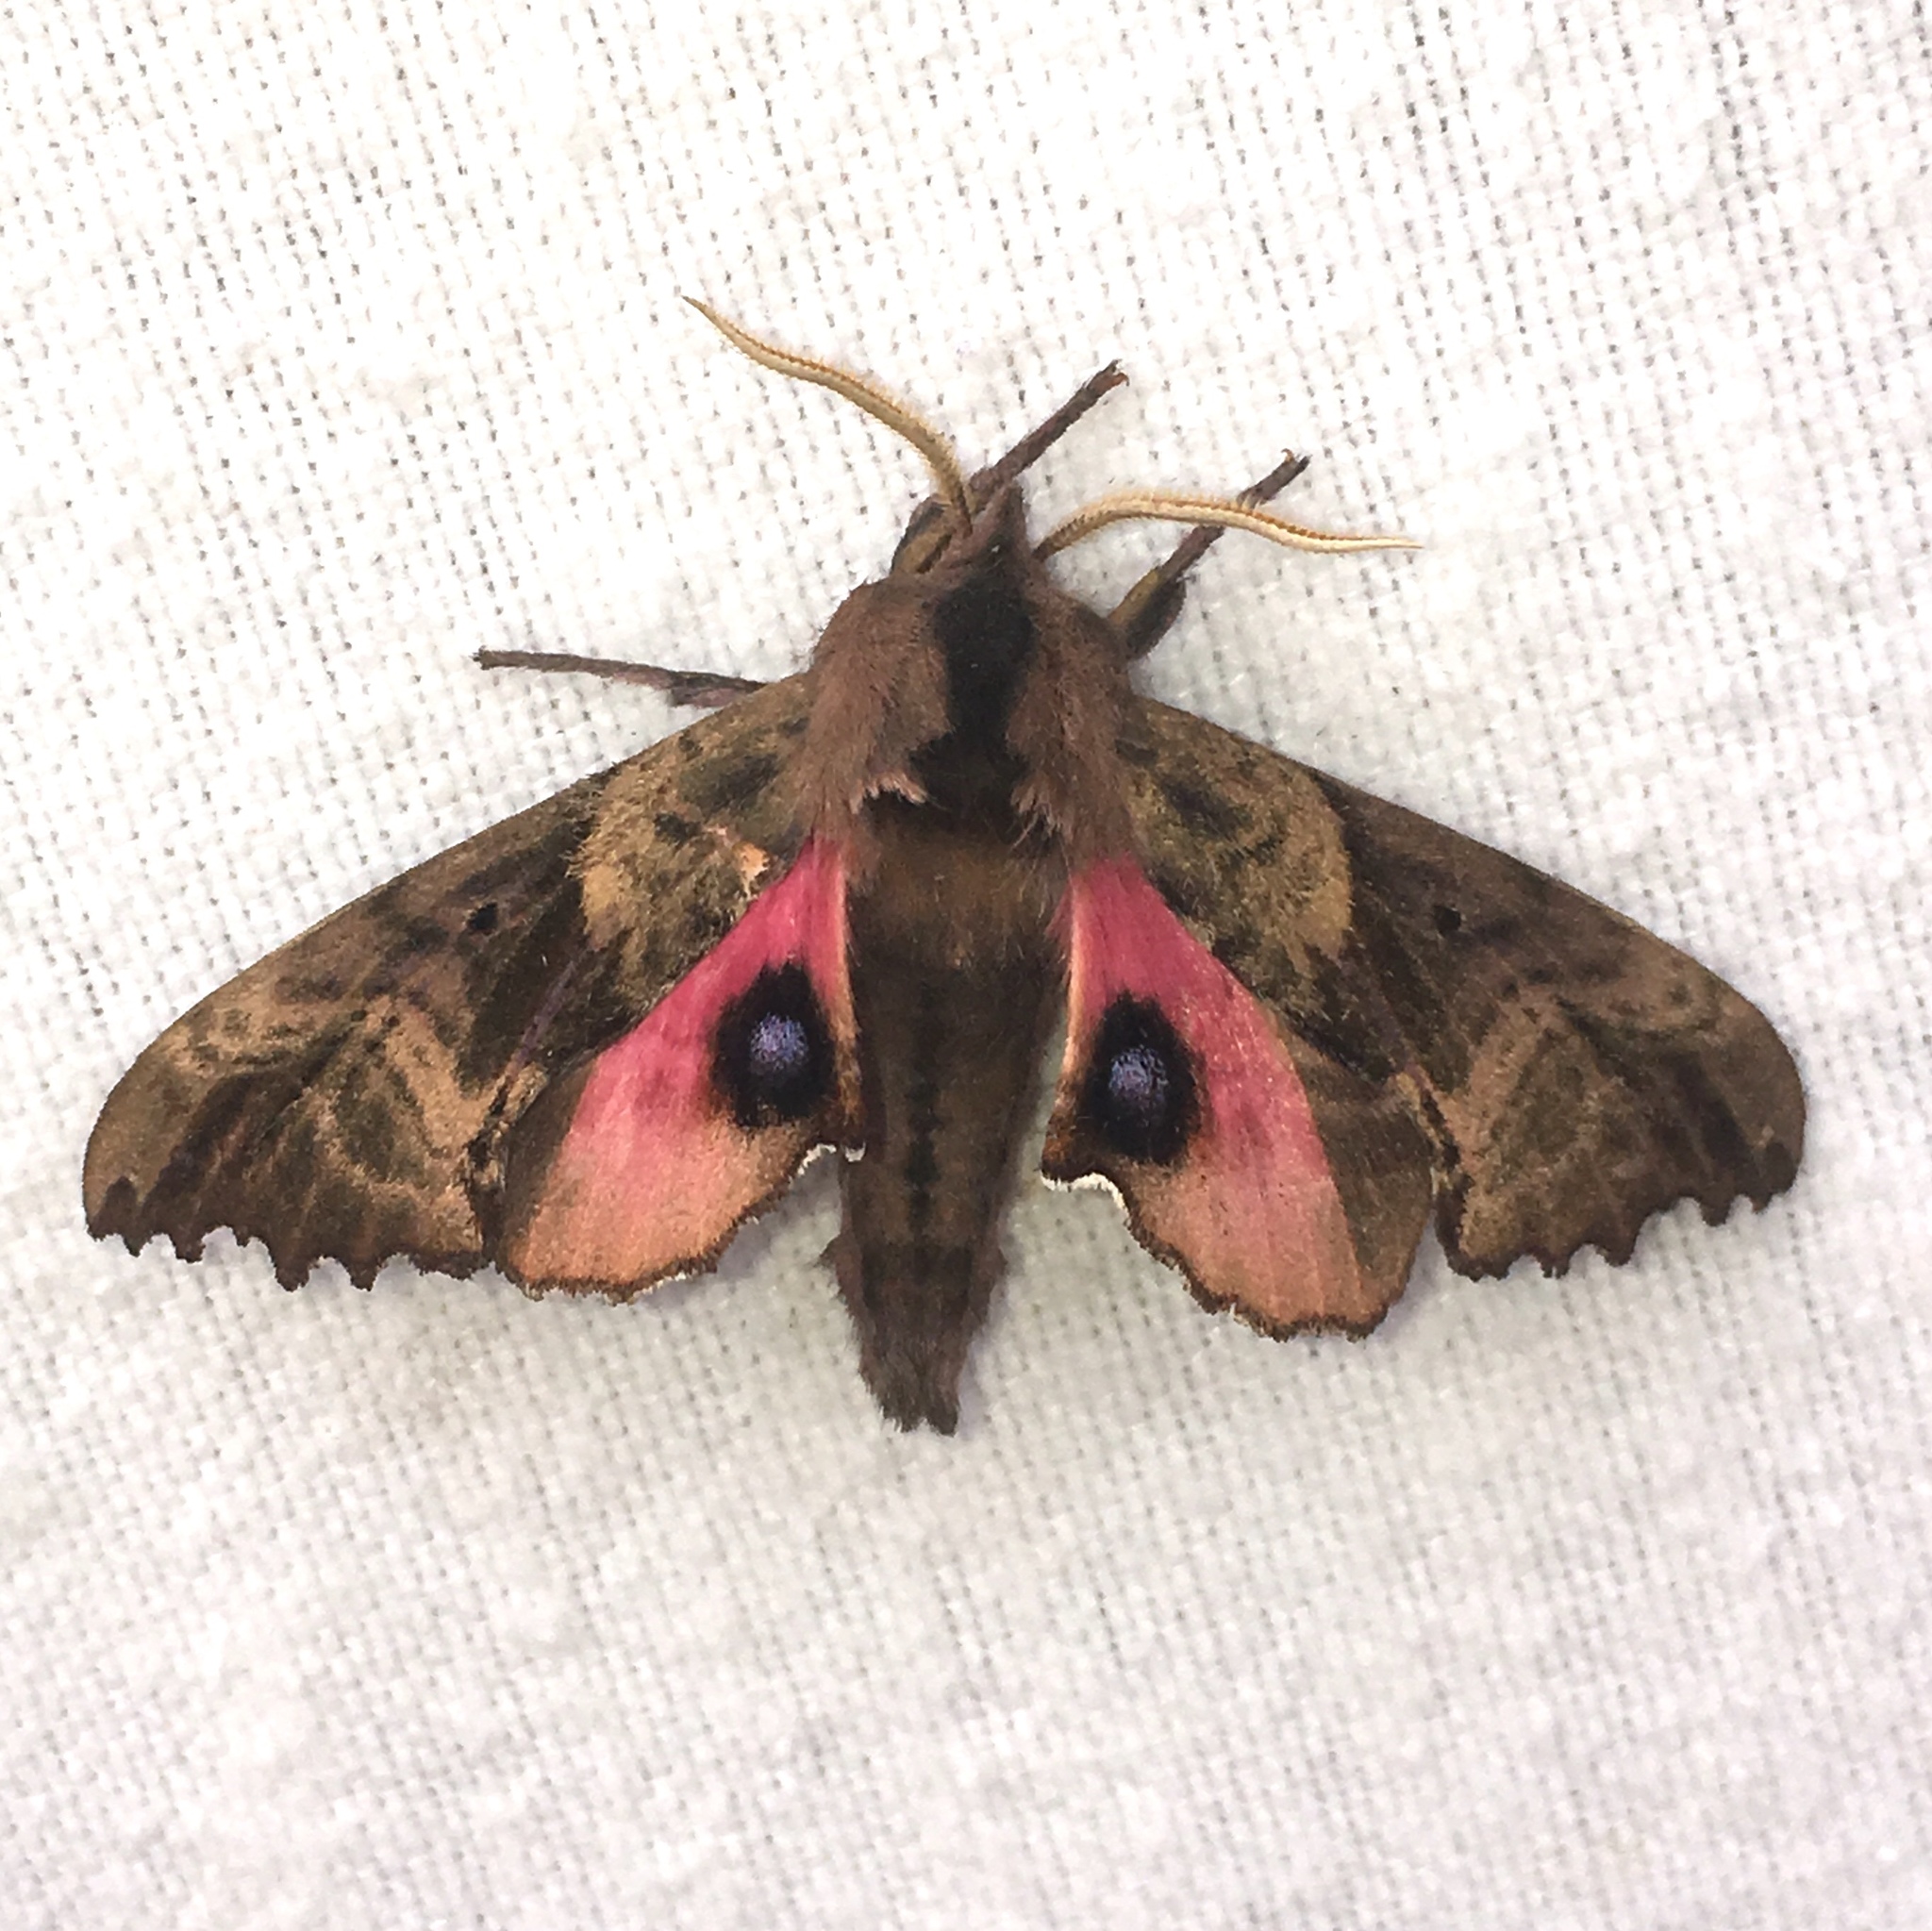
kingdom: Animalia
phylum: Arthropoda
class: Insecta
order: Lepidoptera
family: Sphingidae
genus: Paonias
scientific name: Paonias excaecata
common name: Blind-eyed sphinx
